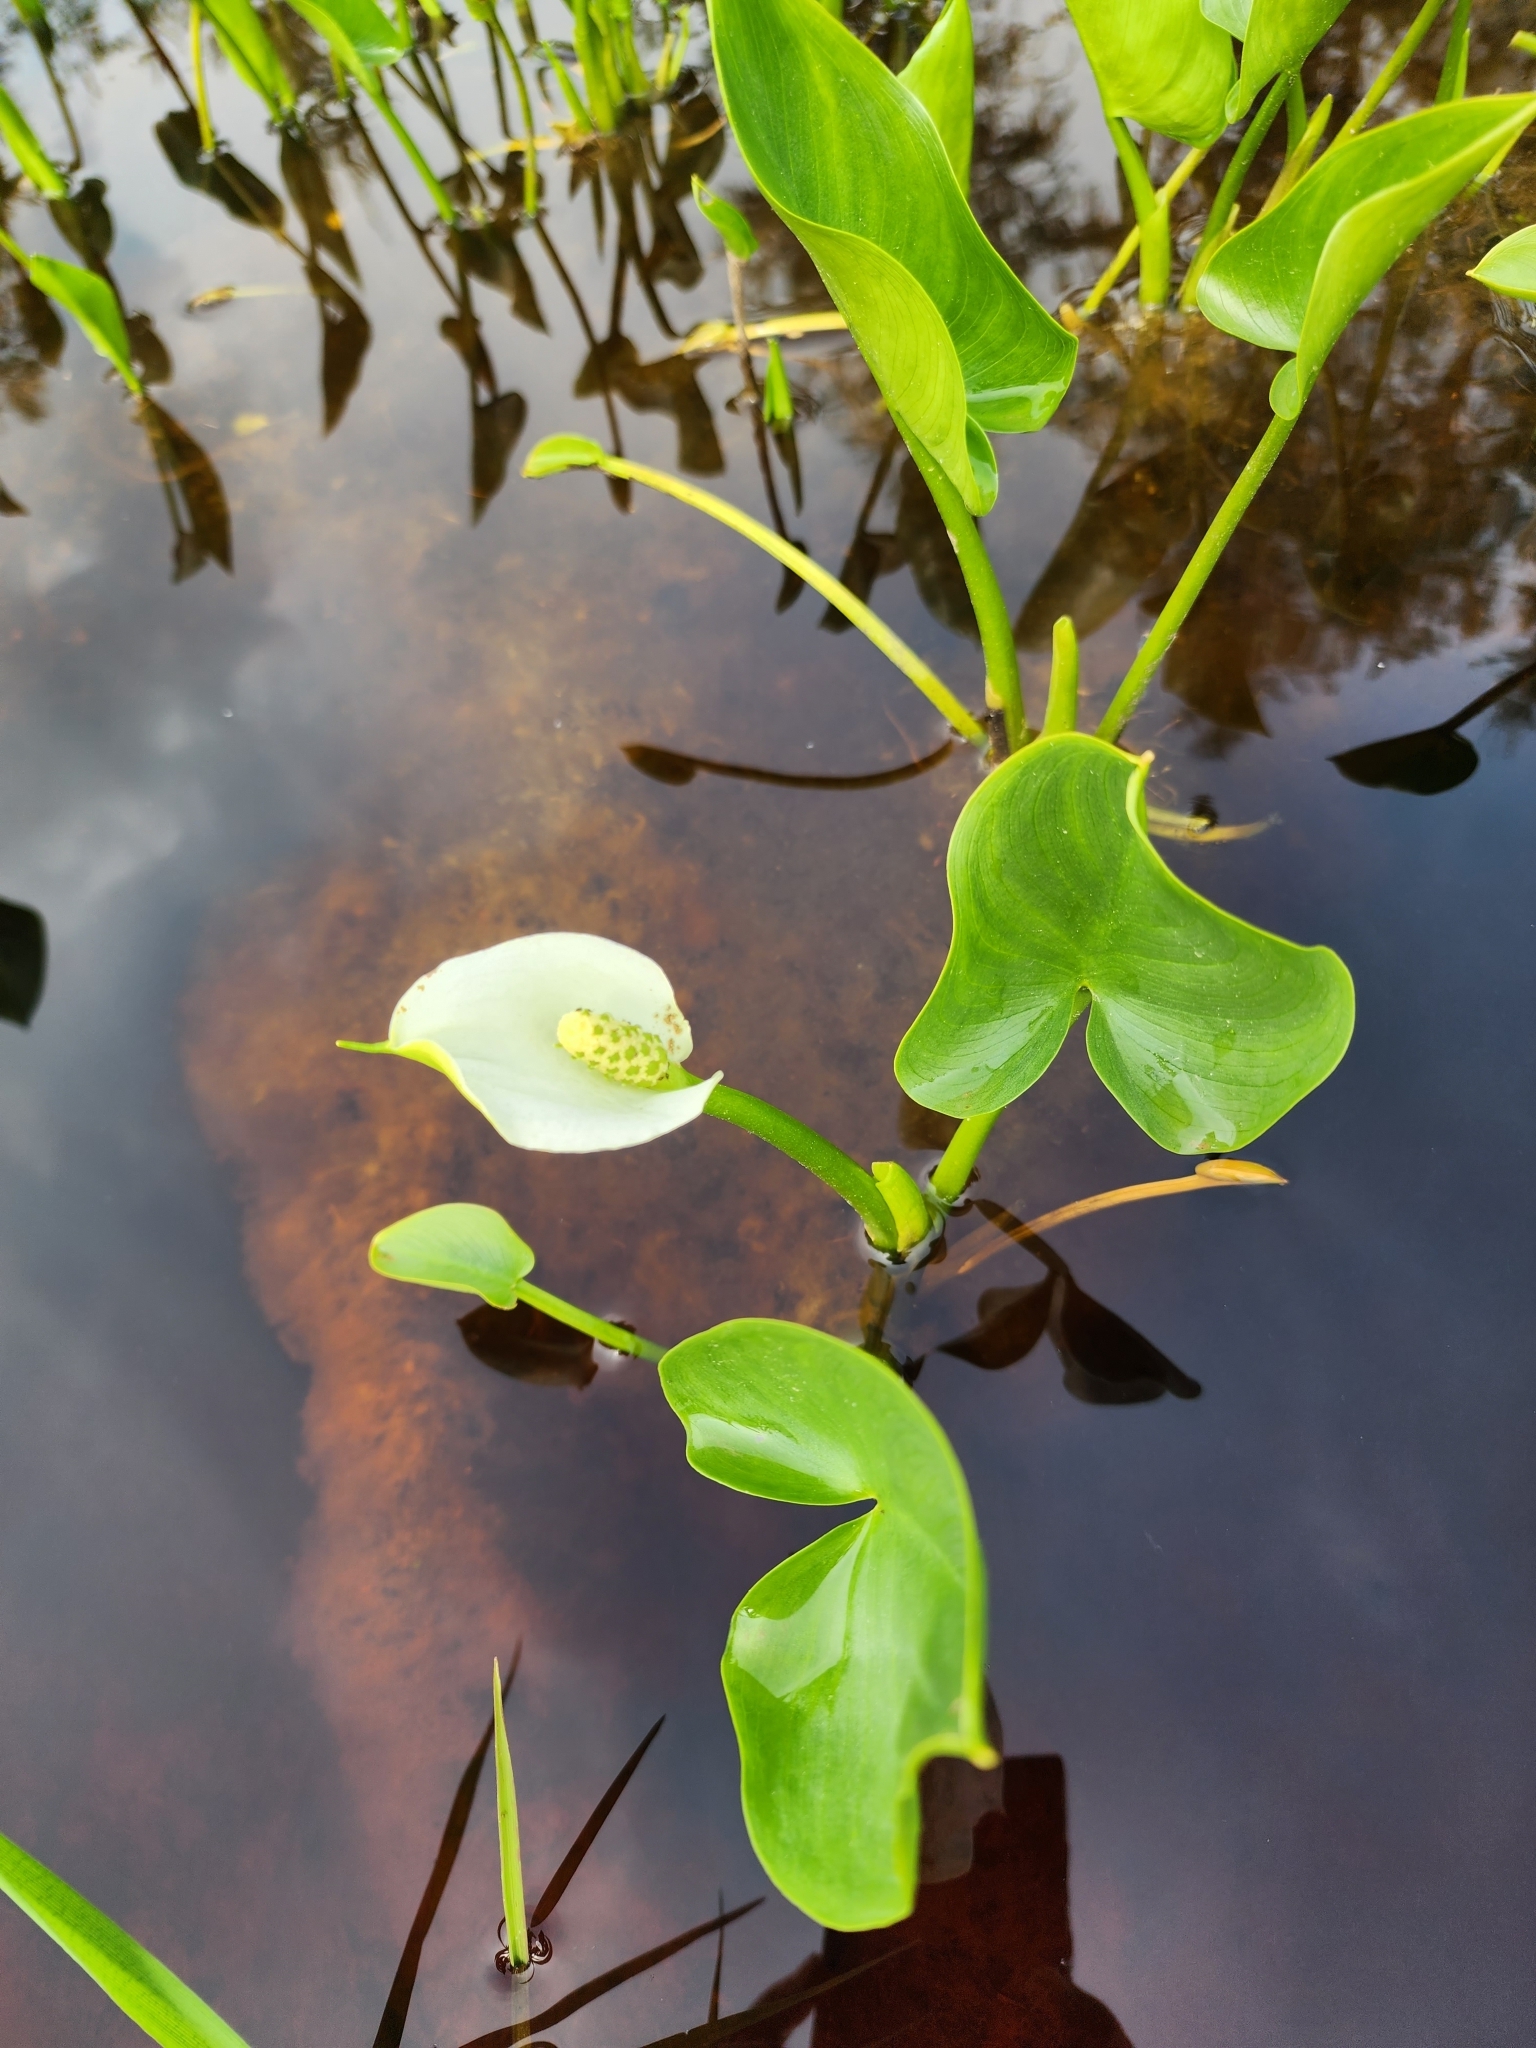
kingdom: Plantae
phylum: Tracheophyta
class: Liliopsida
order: Alismatales
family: Araceae
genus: Calla
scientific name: Calla palustris
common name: Bog arum
